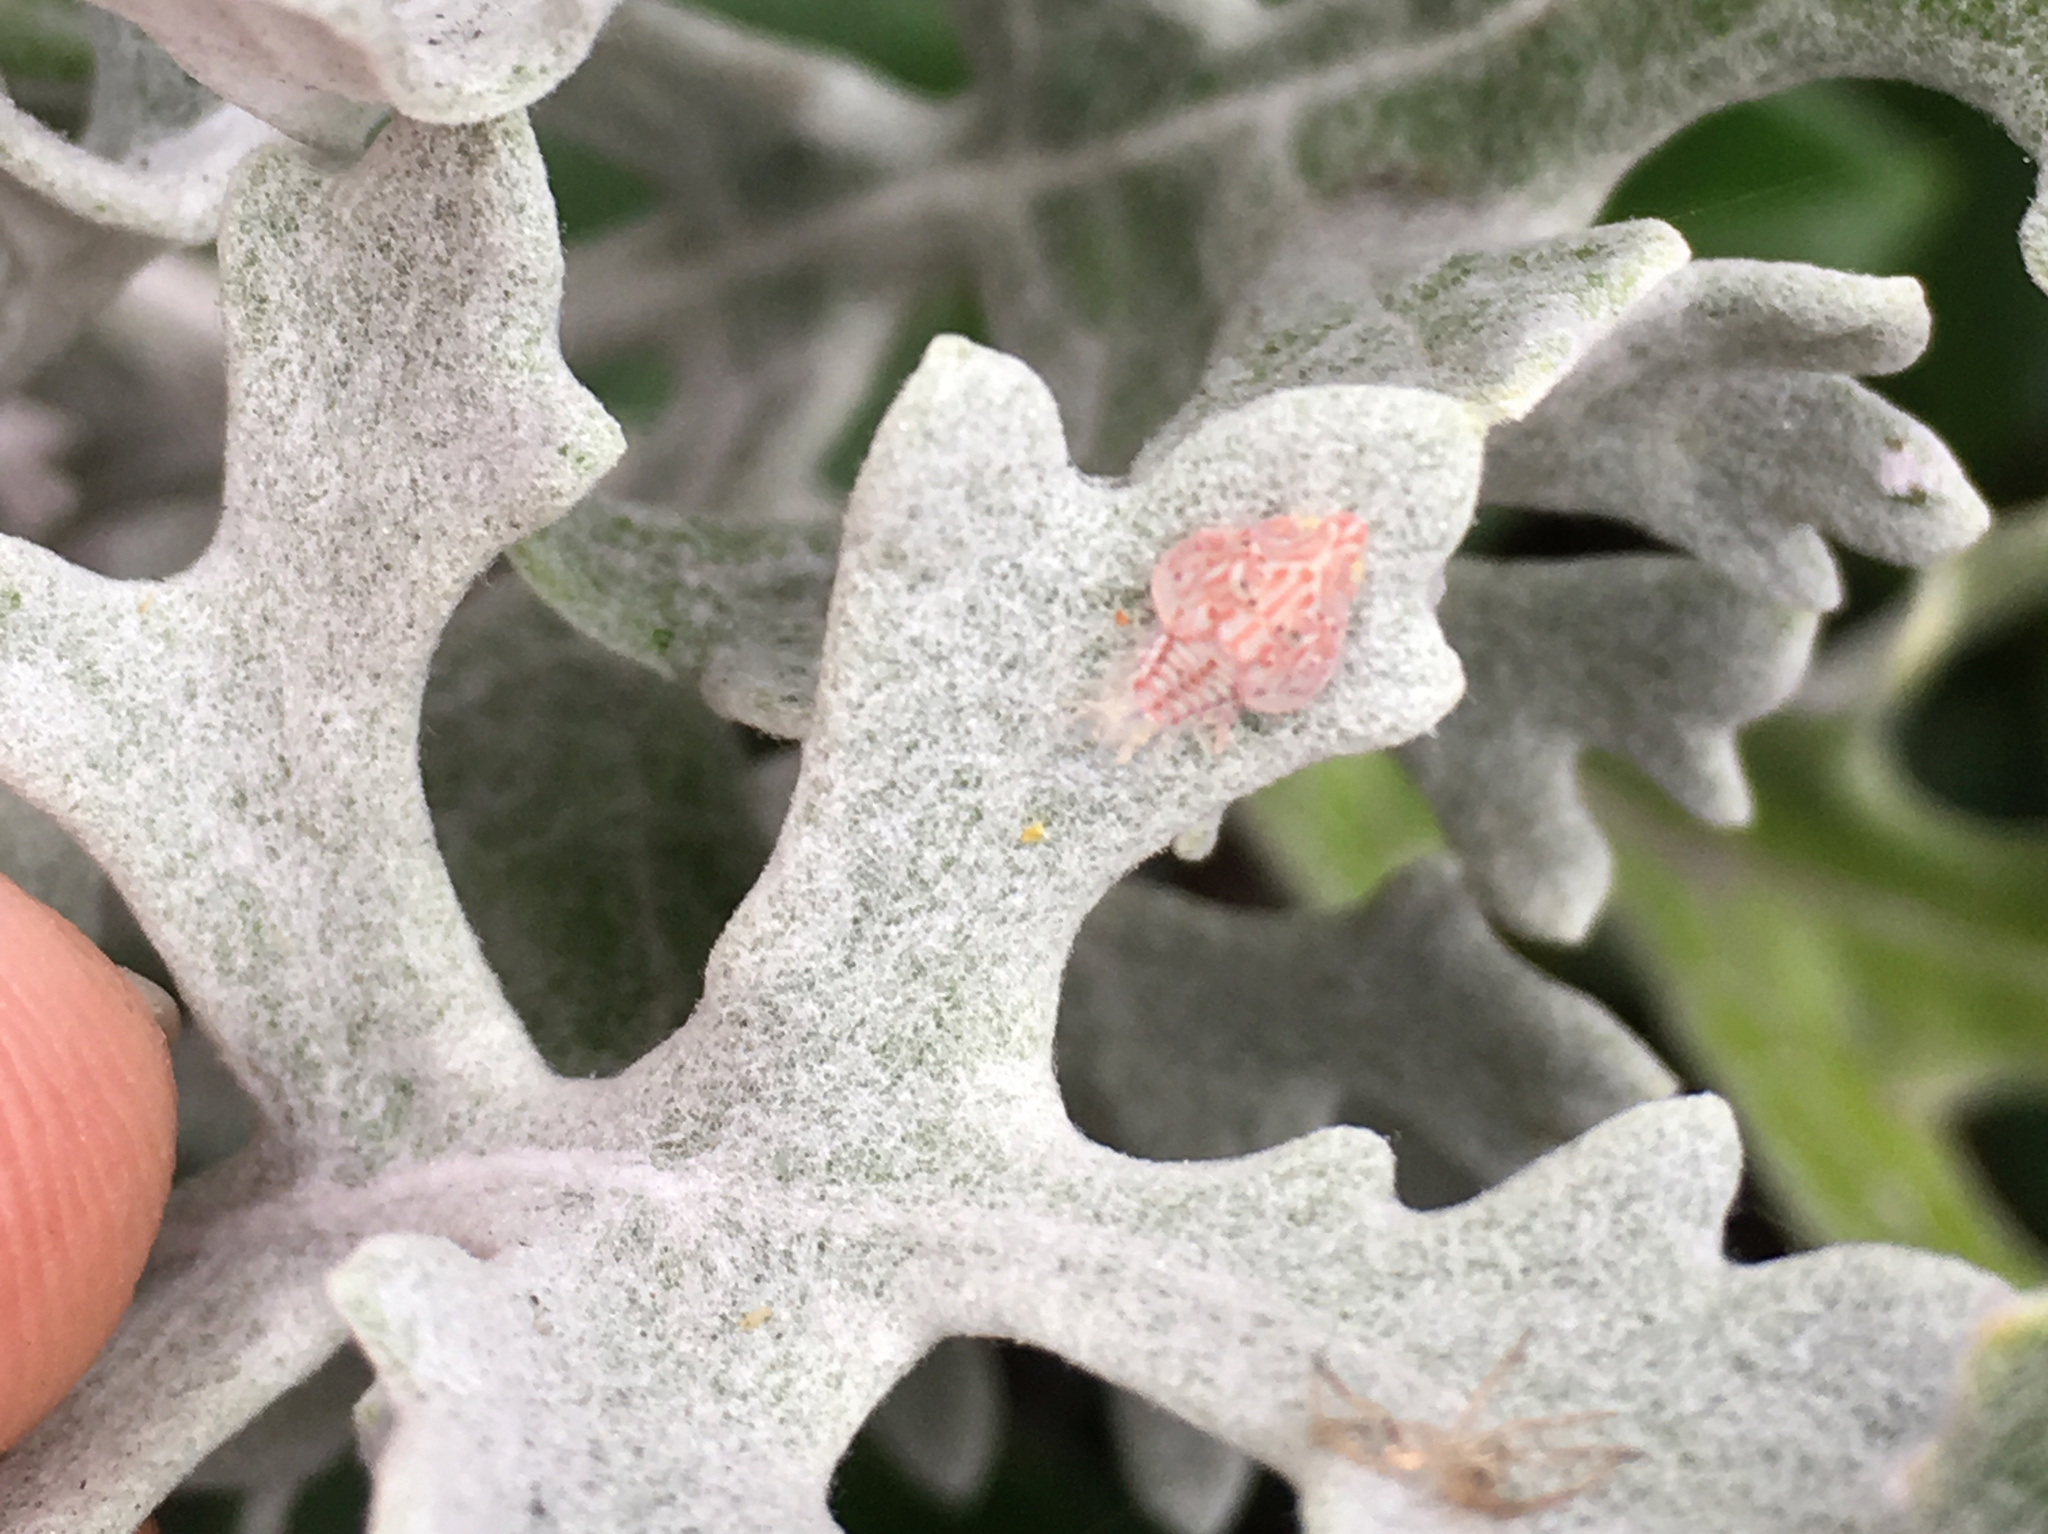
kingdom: Animalia
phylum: Arthropoda
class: Insecta
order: Hemiptera
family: Flatidae
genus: Siphanta
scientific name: Siphanta acuta
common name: Torpedo bug
